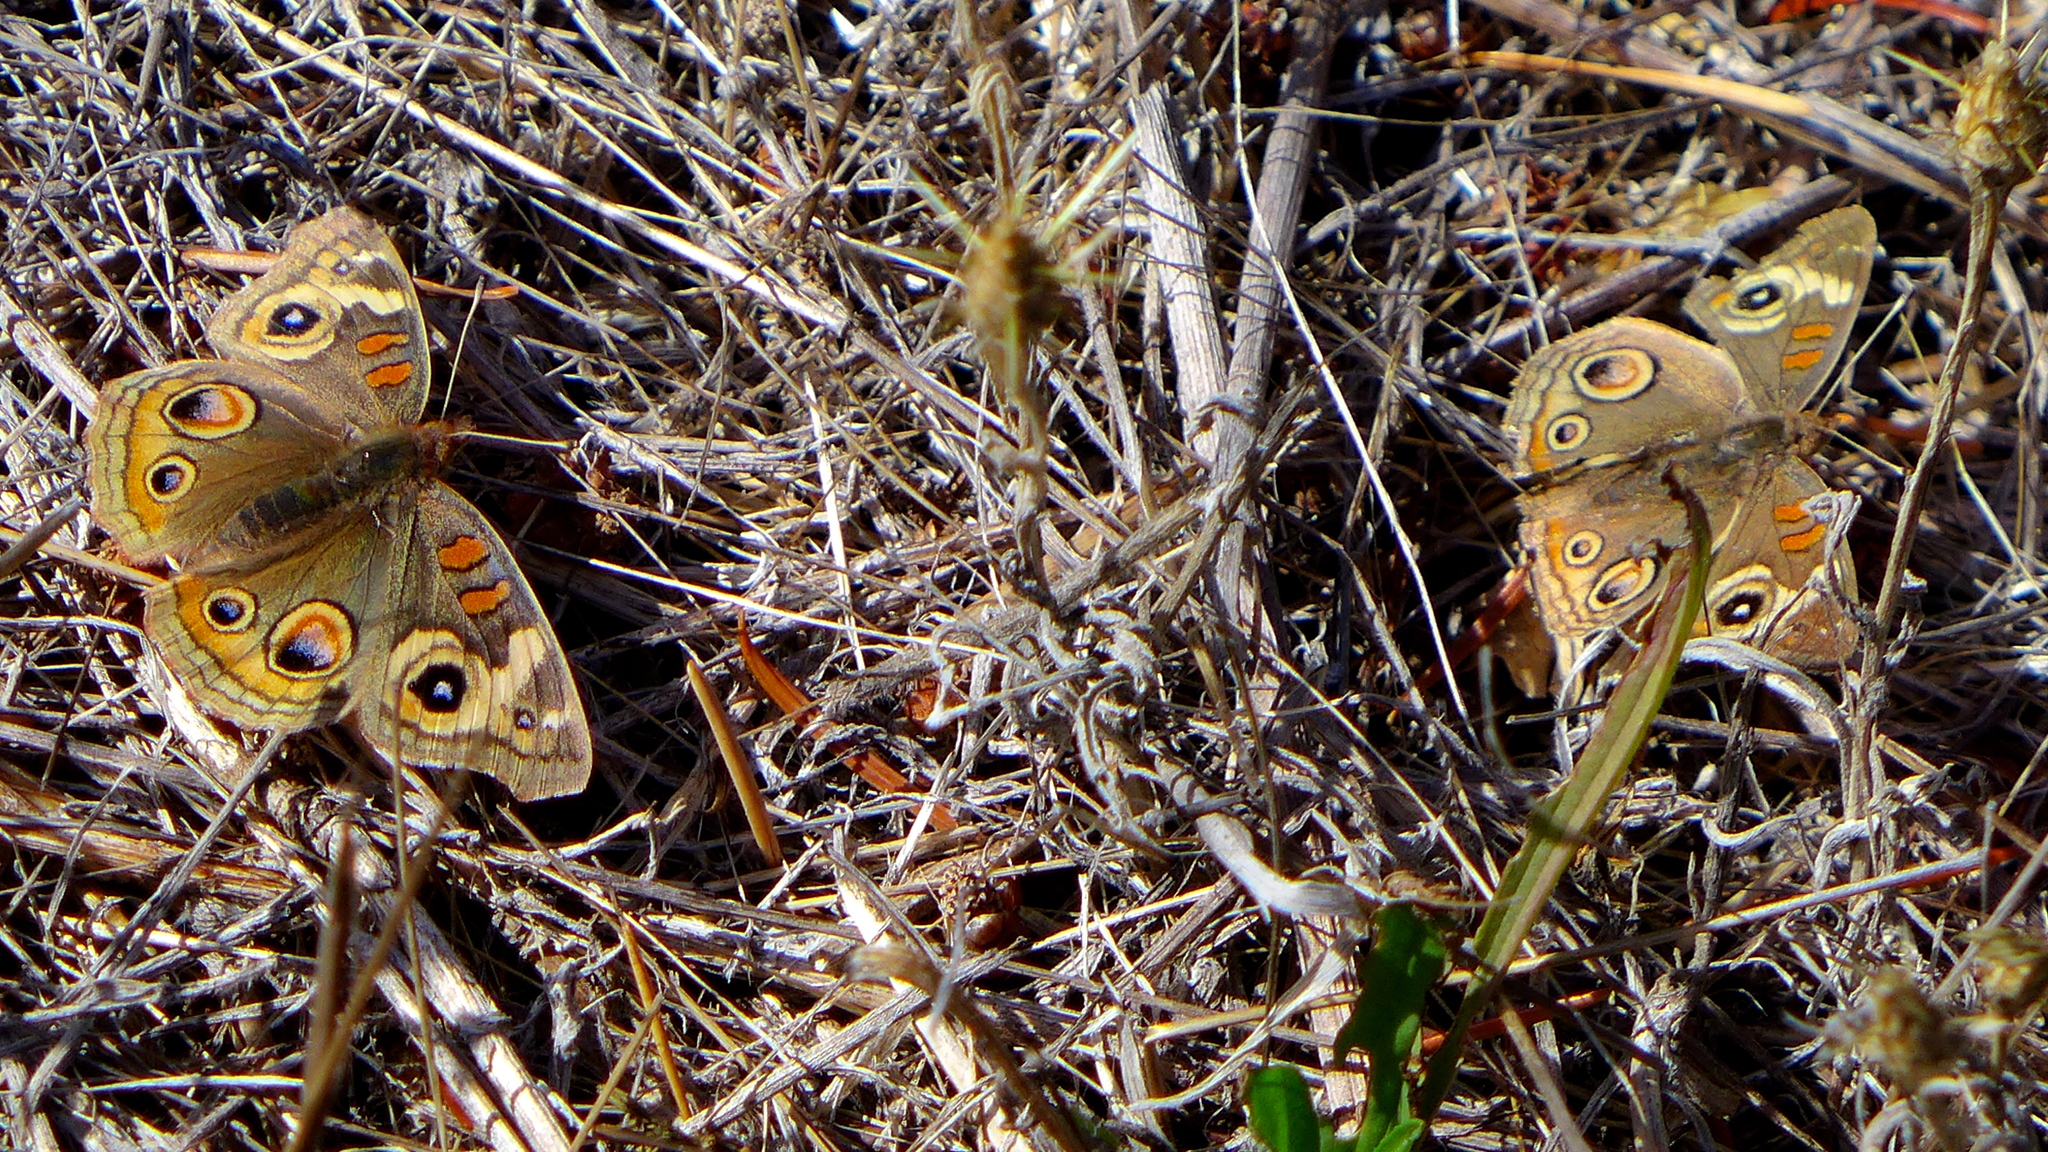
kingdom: Animalia
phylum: Arthropoda
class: Insecta
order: Lepidoptera
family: Nymphalidae
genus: Junonia
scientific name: Junonia grisea
